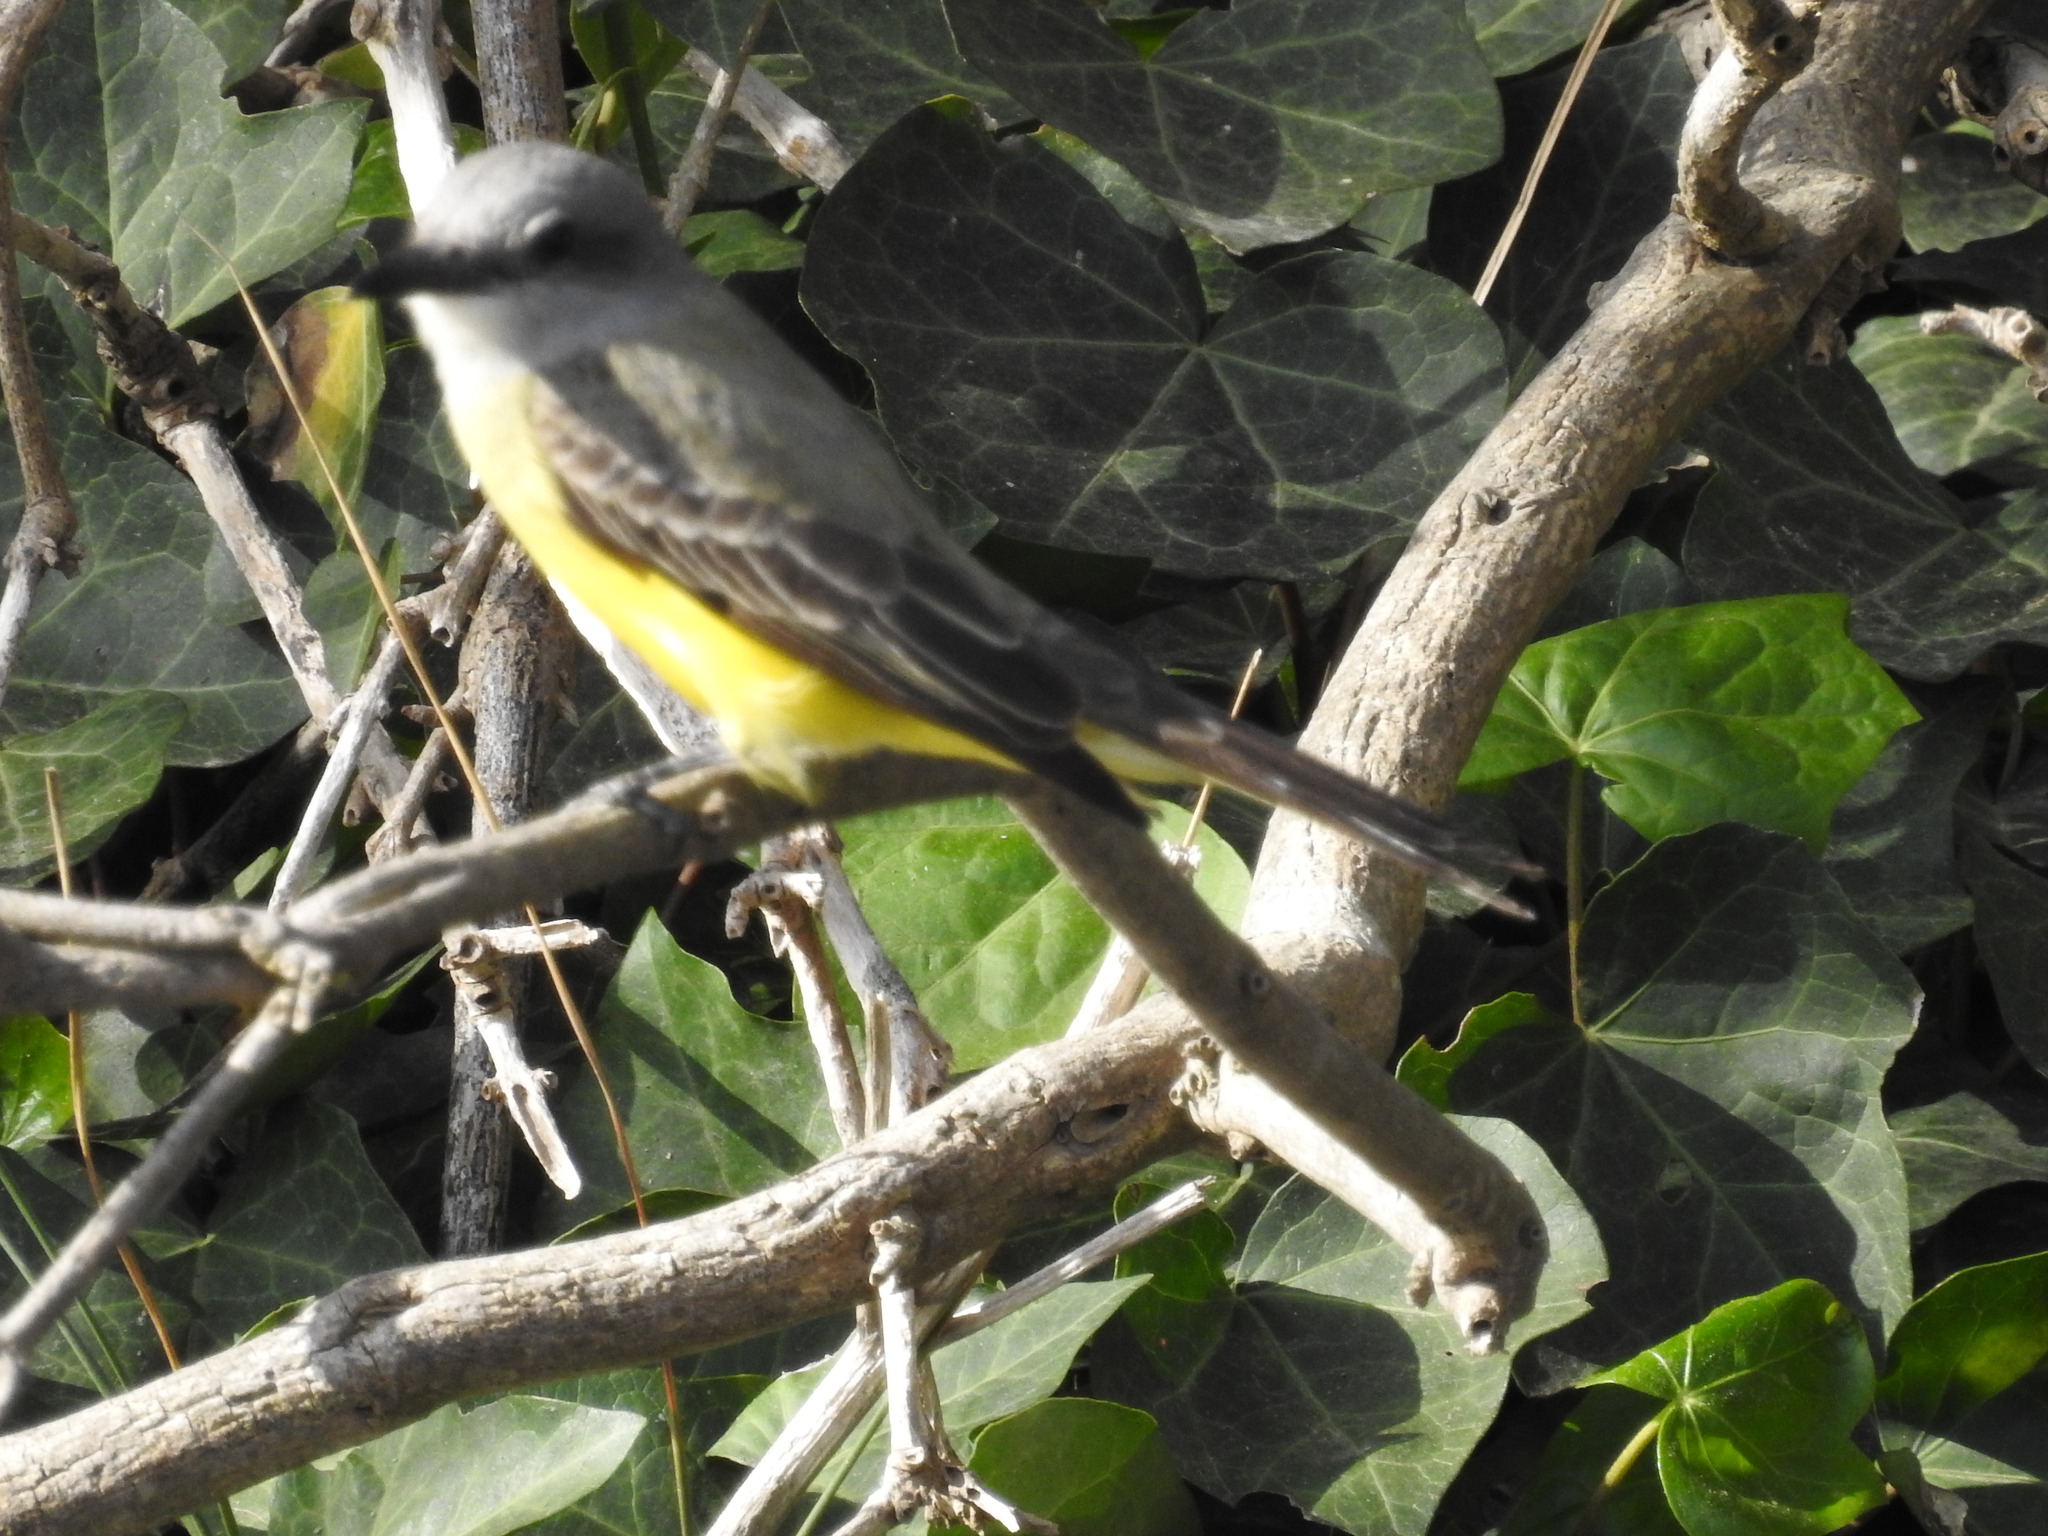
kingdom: Animalia
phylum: Chordata
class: Aves
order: Passeriformes
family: Tyrannidae
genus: Tyrannus
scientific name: Tyrannus melancholicus
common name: Tropical kingbird
